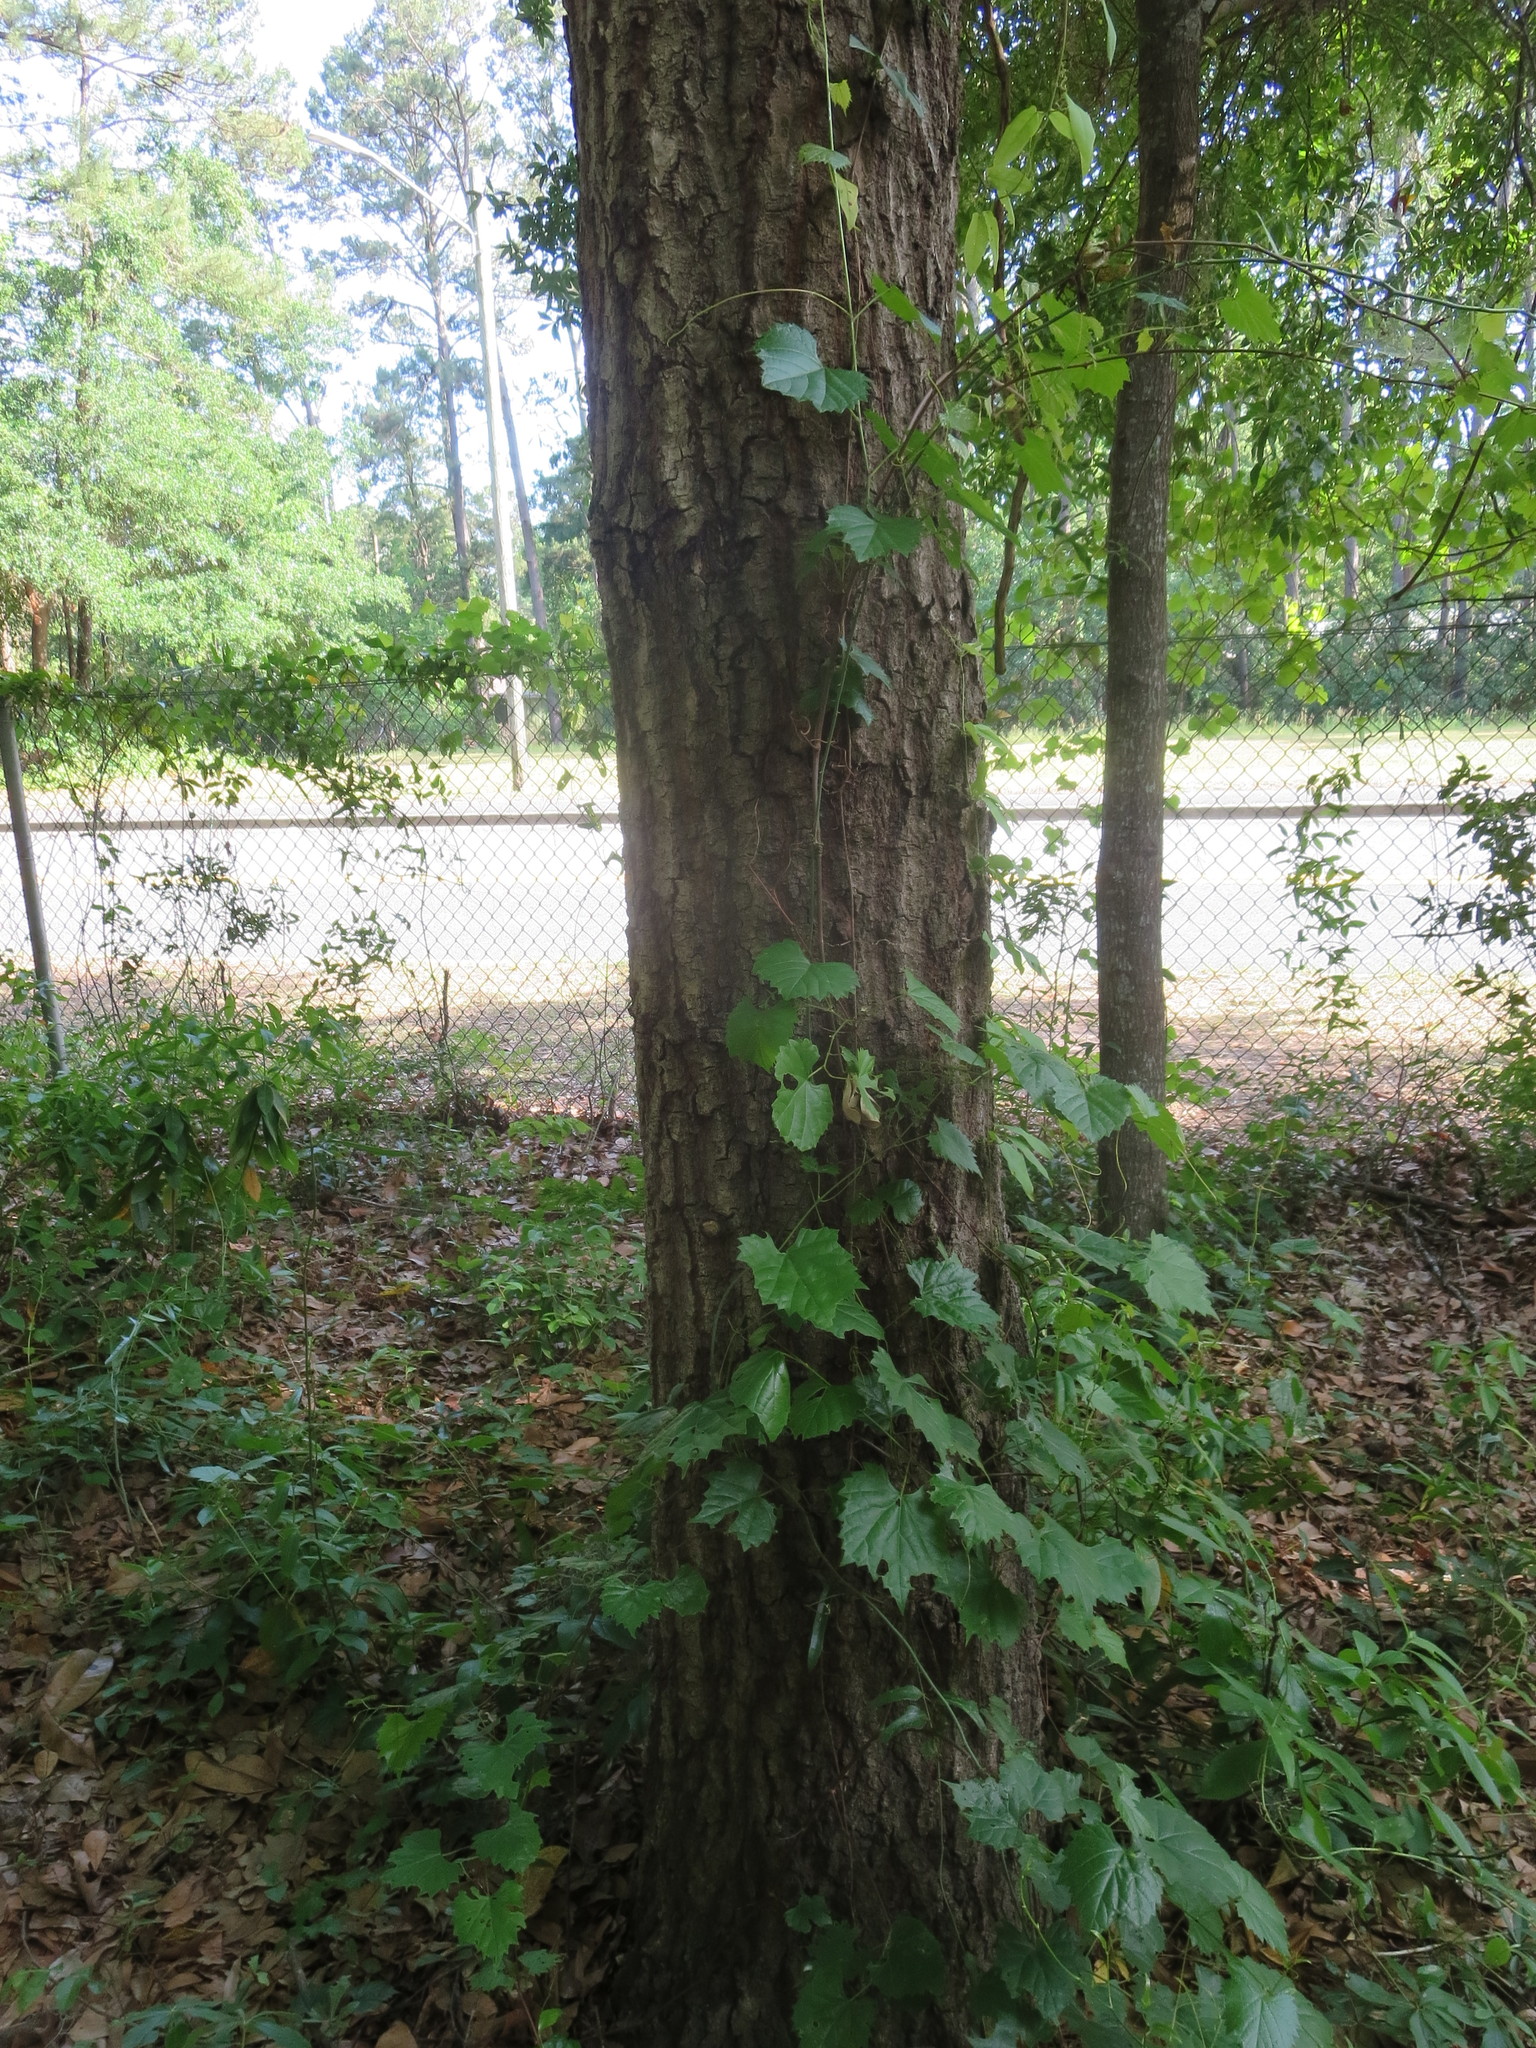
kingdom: Plantae
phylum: Tracheophyta
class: Magnoliopsida
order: Vitales
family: Vitaceae
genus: Vitis
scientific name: Vitis rotundifolia
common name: Muscadine grape
